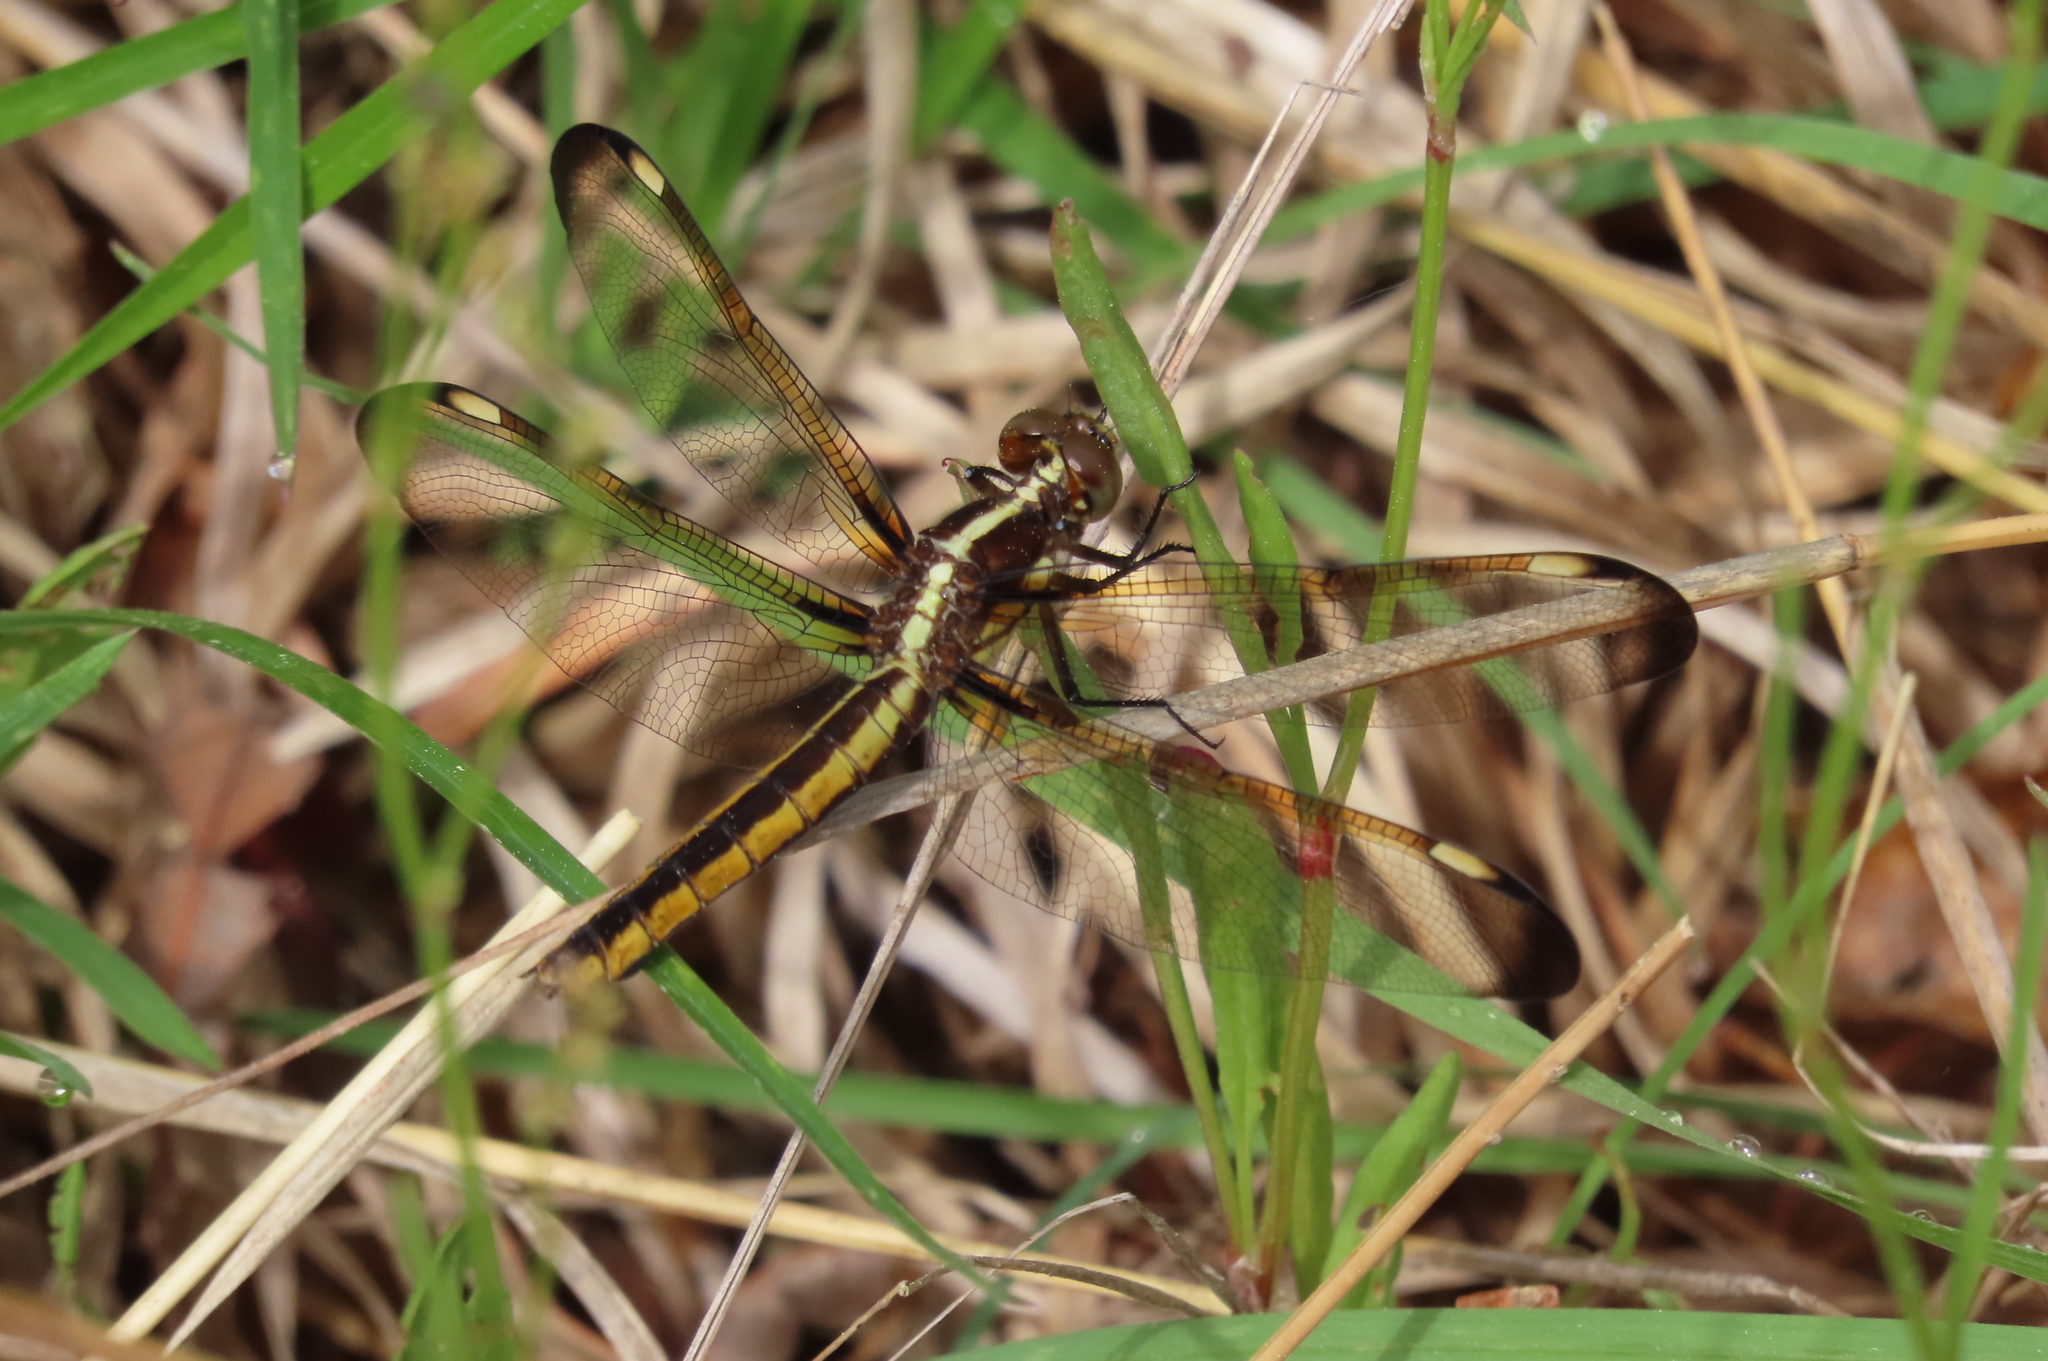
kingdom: Animalia
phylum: Arthropoda
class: Insecta
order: Odonata
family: Libellulidae
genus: Libellula
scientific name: Libellula cyanea
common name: Spangled skimmer
